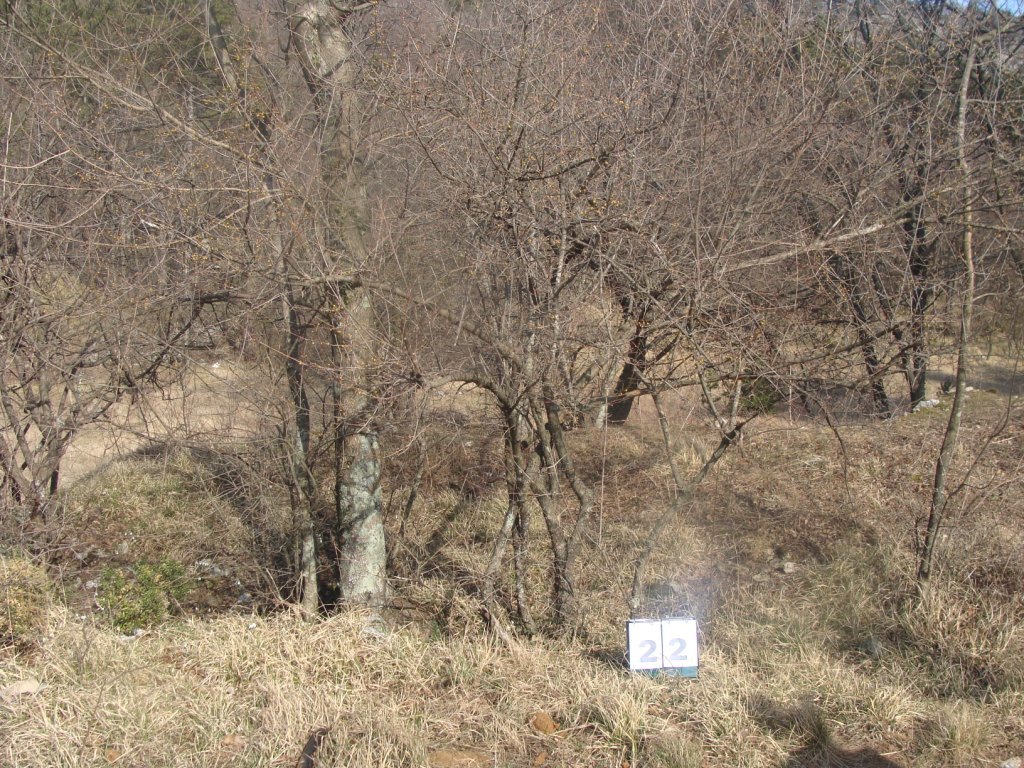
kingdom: Plantae
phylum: Tracheophyta
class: Magnoliopsida
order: Cornales
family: Cornaceae
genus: Cornus
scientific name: Cornus mas
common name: Cornelian-cherry
